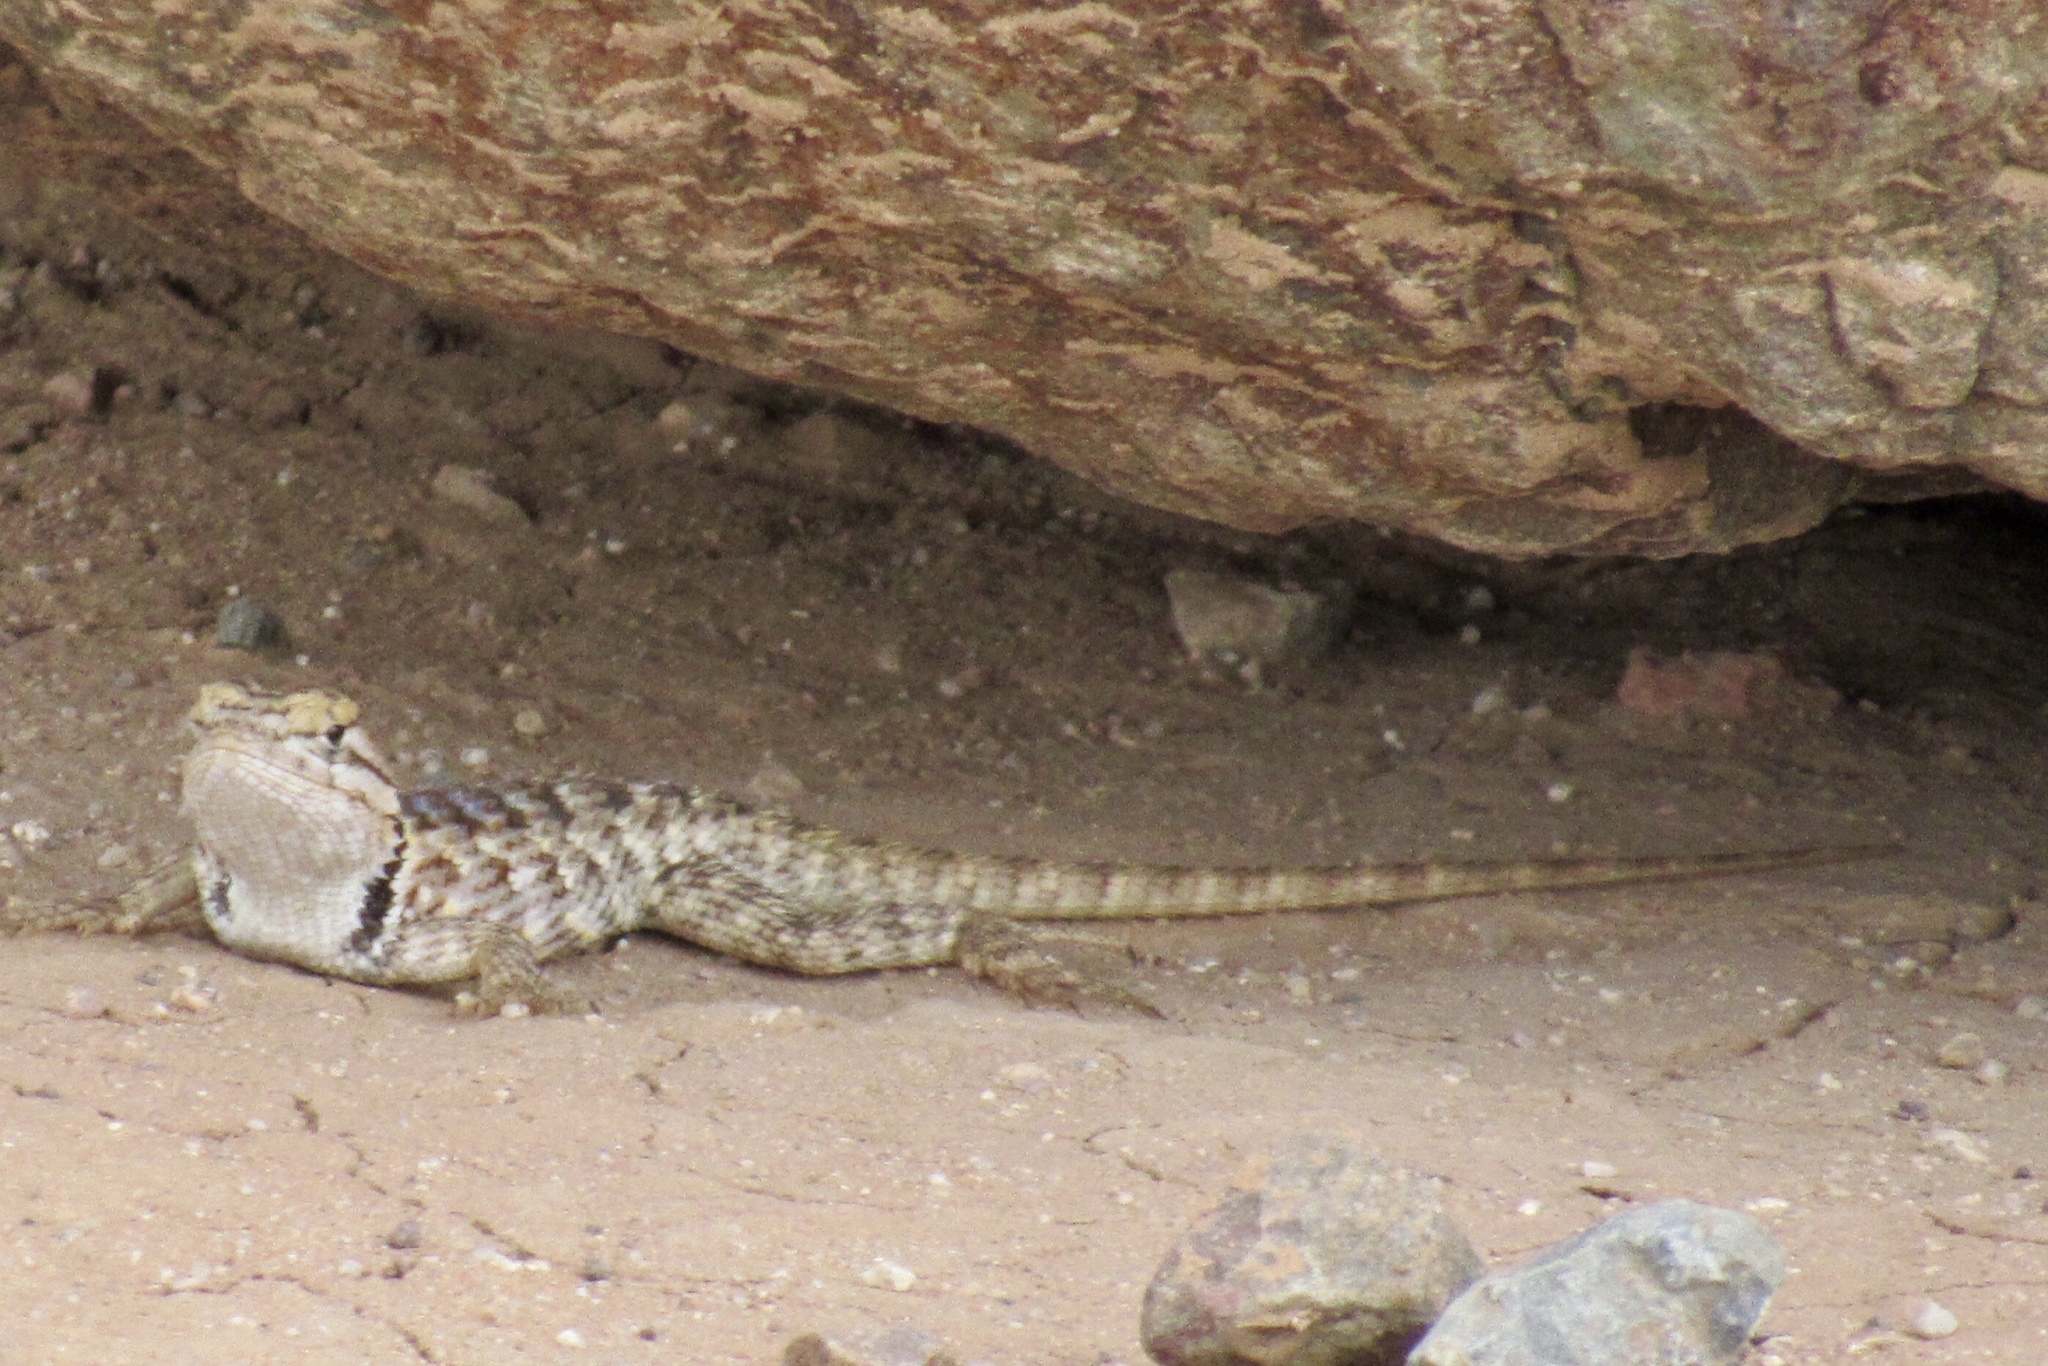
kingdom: Animalia
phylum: Chordata
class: Squamata
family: Phrynosomatidae
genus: Sceloporus
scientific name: Sceloporus magister
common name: Desert spiny lizard
